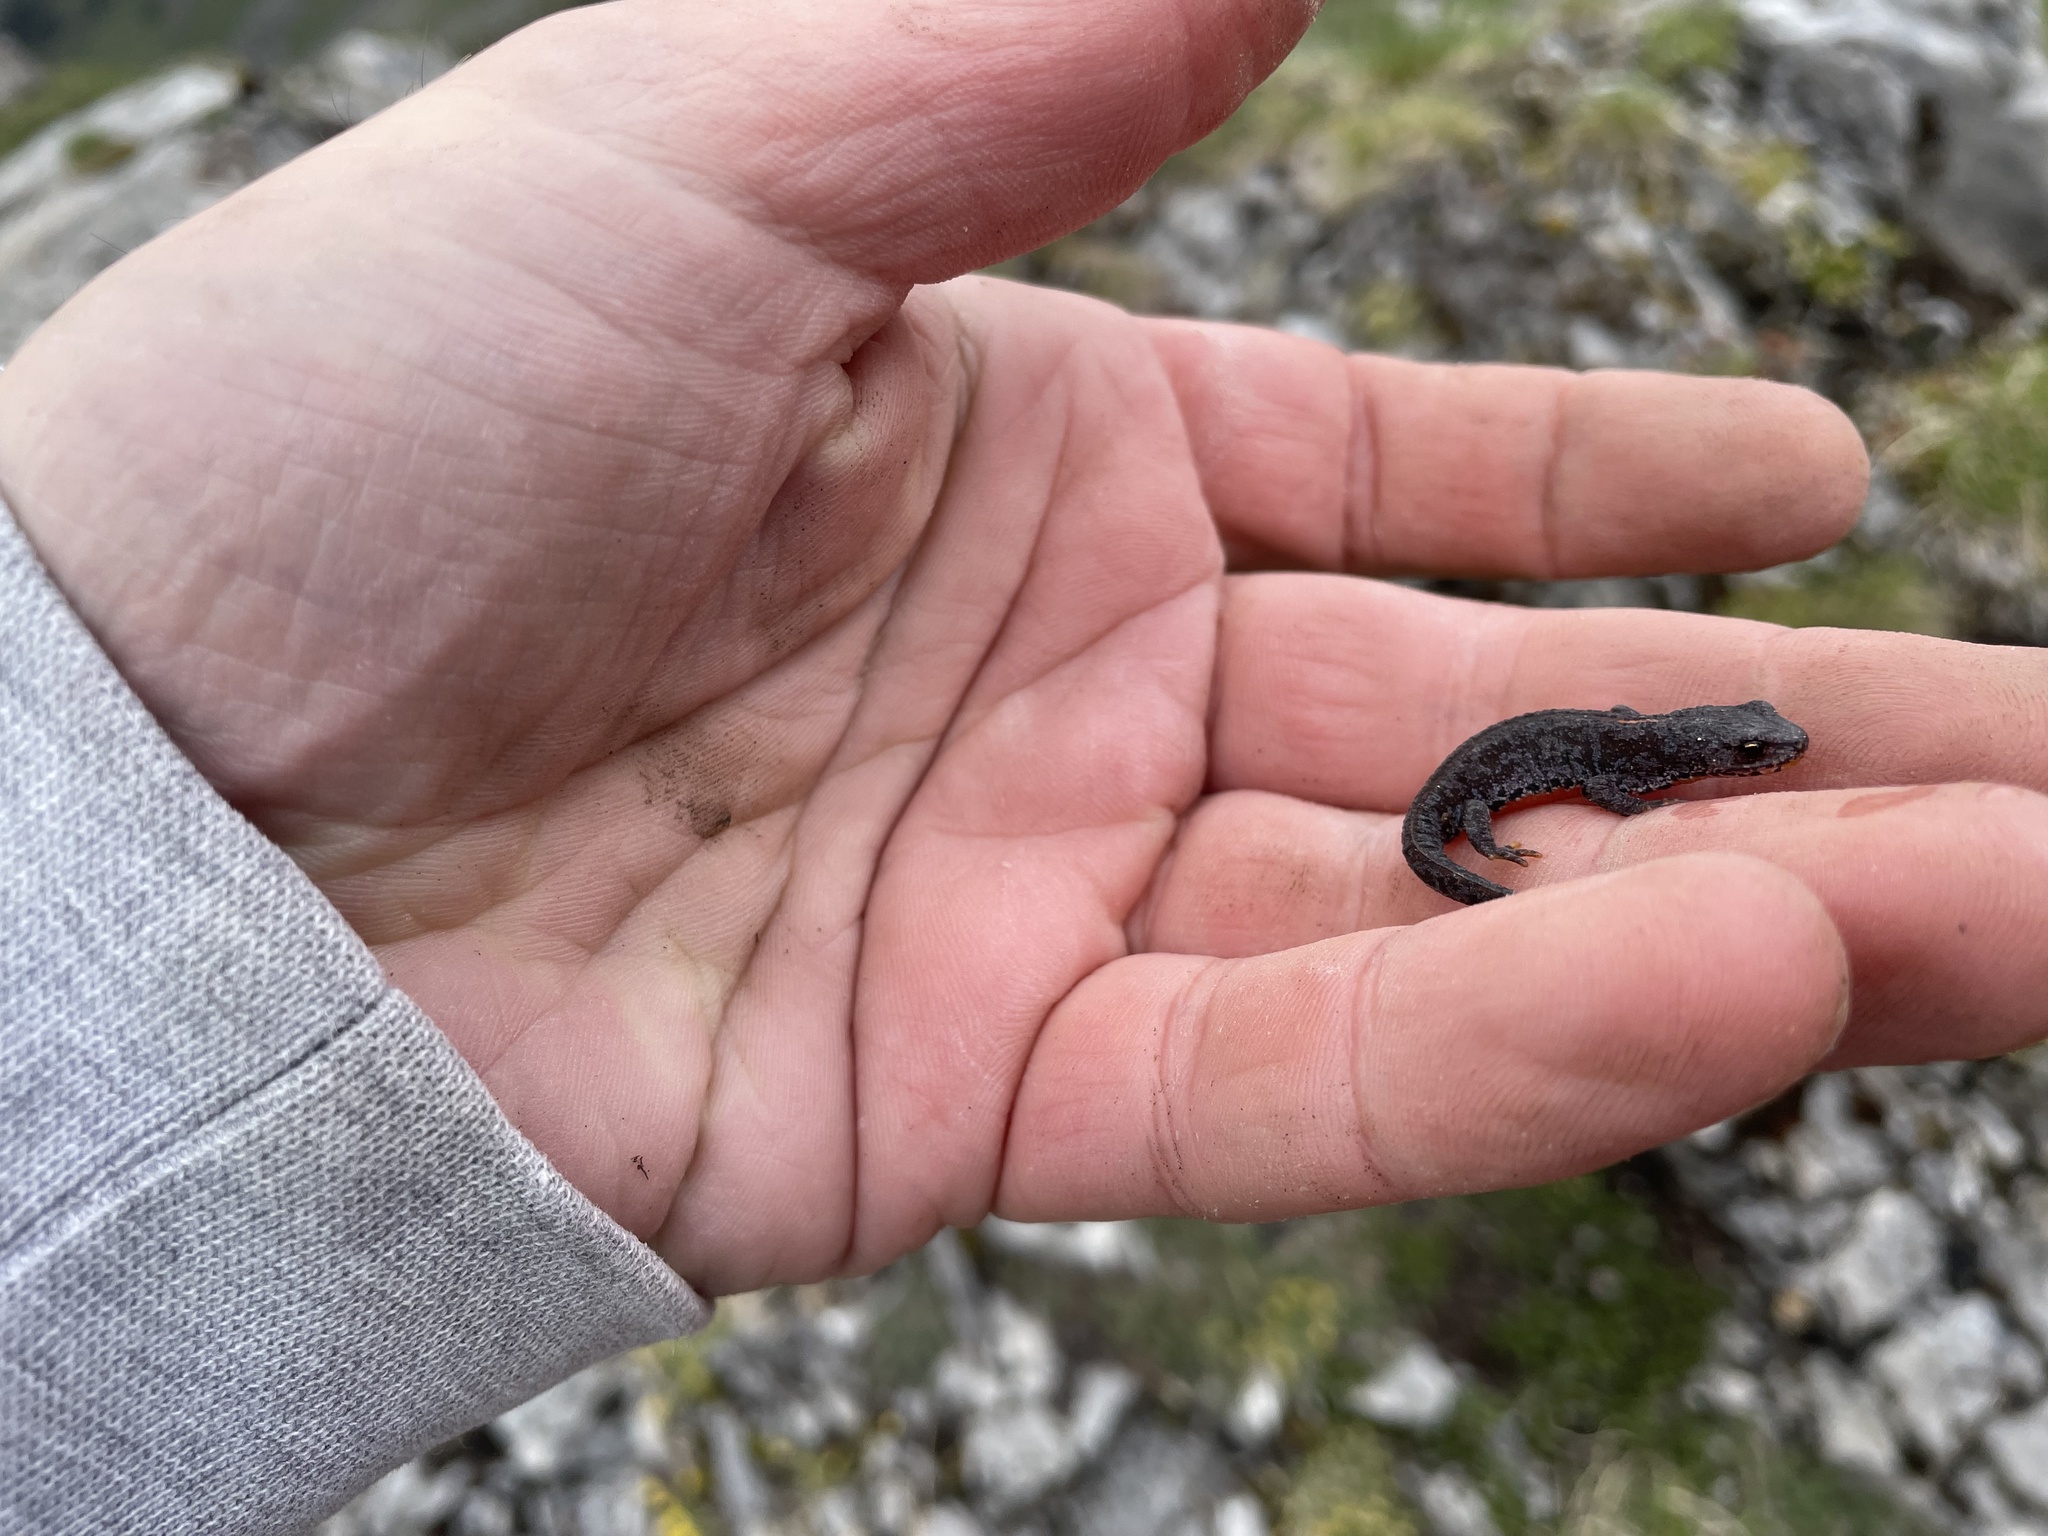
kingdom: Animalia
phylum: Chordata
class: Amphibia
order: Caudata
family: Salamandridae
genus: Ichthyosaura
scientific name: Ichthyosaura alpestris
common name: Alpine newt
